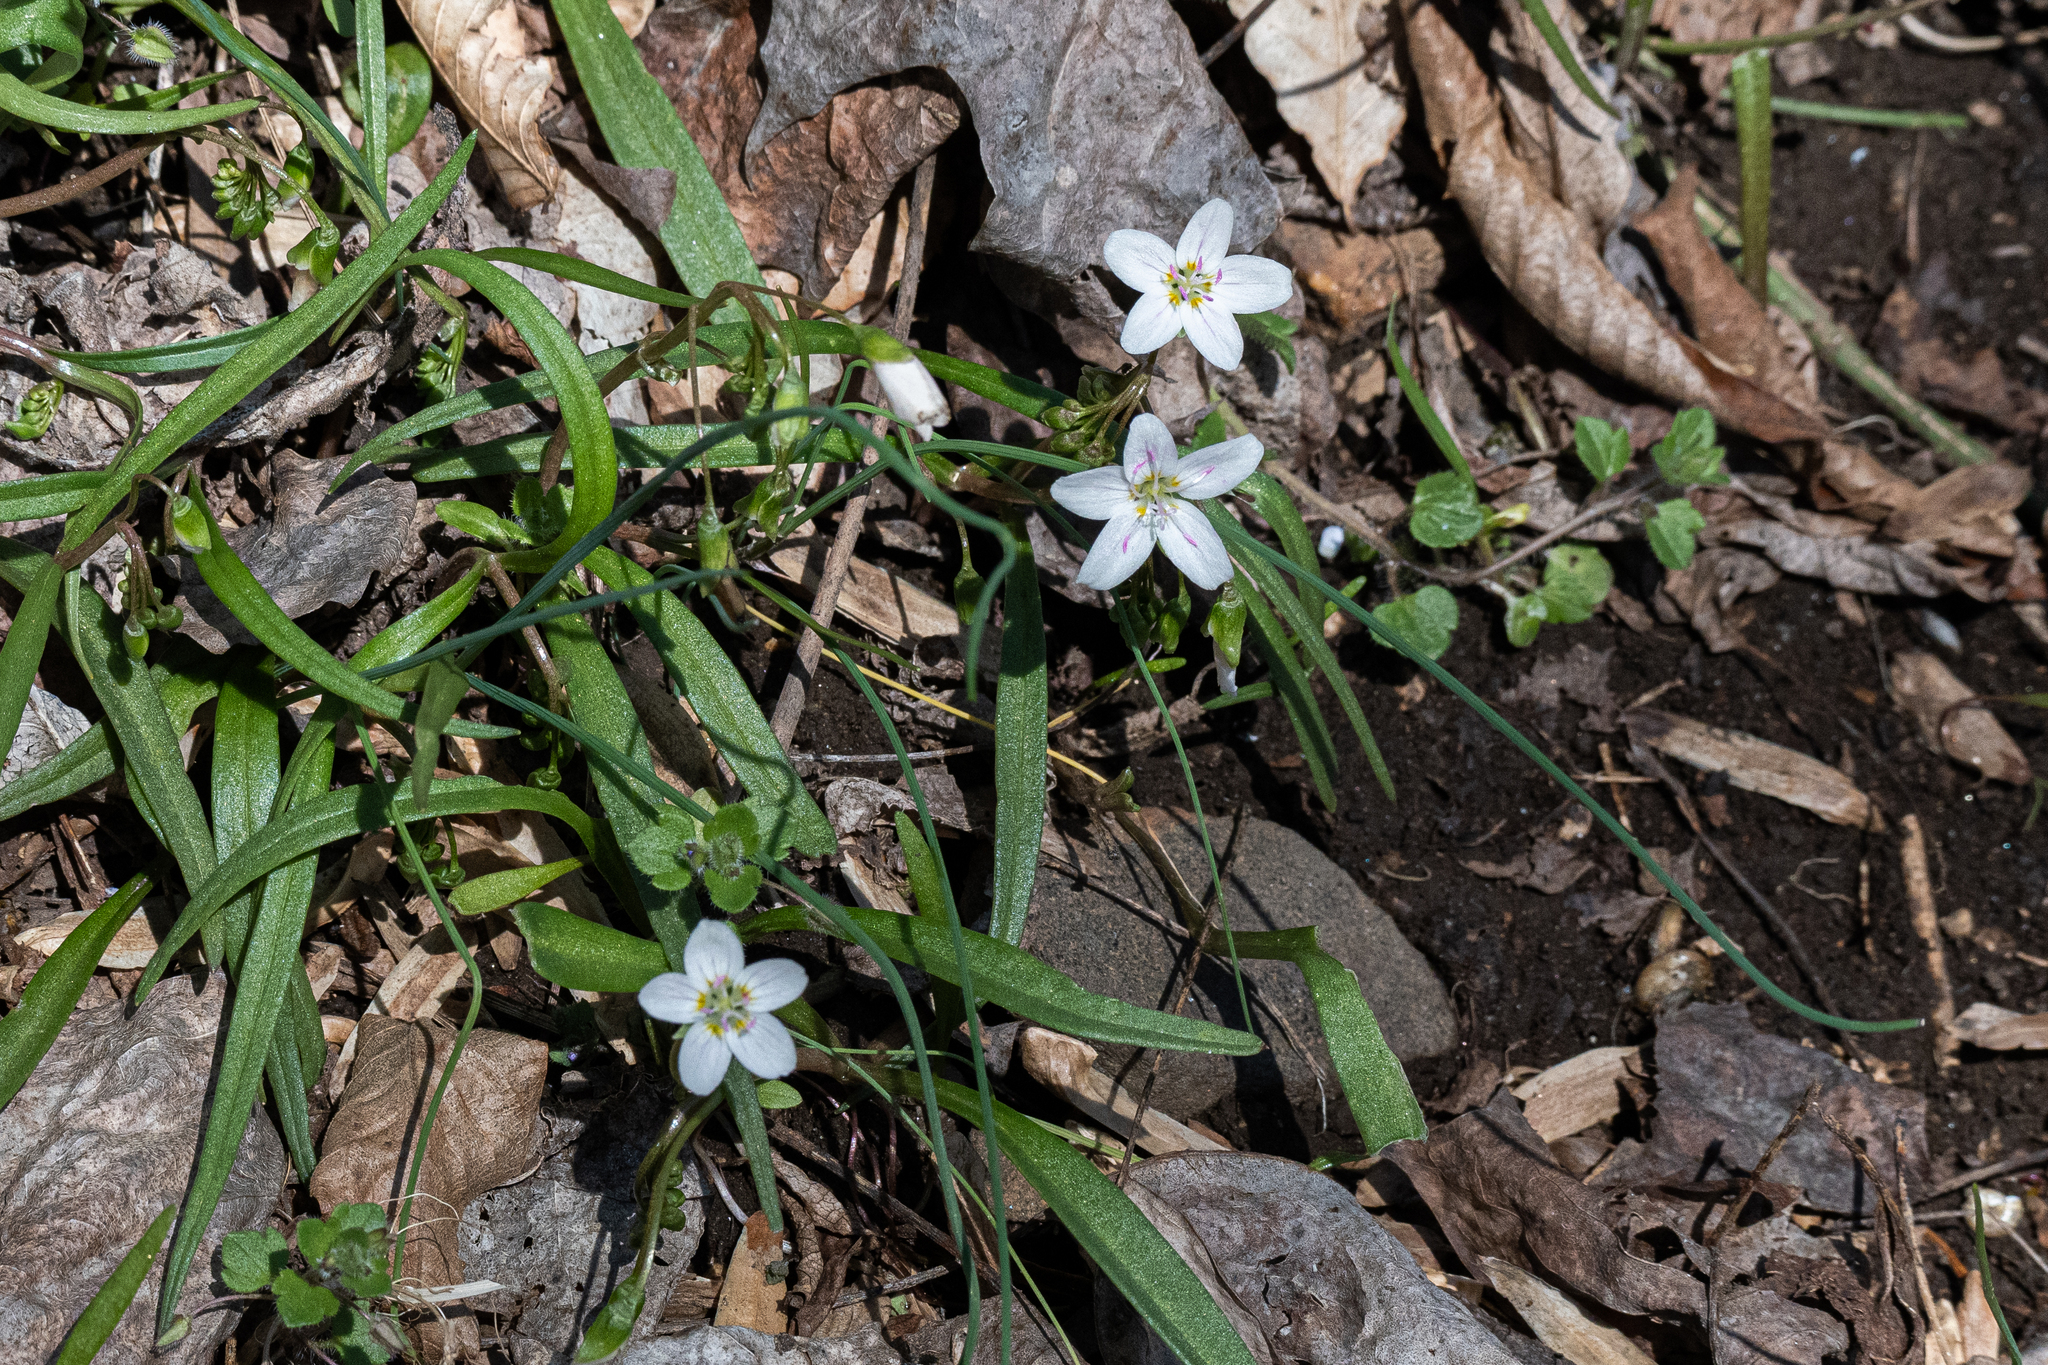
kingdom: Plantae
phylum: Tracheophyta
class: Magnoliopsida
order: Caryophyllales
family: Montiaceae
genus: Claytonia
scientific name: Claytonia virginica
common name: Virginia springbeauty
